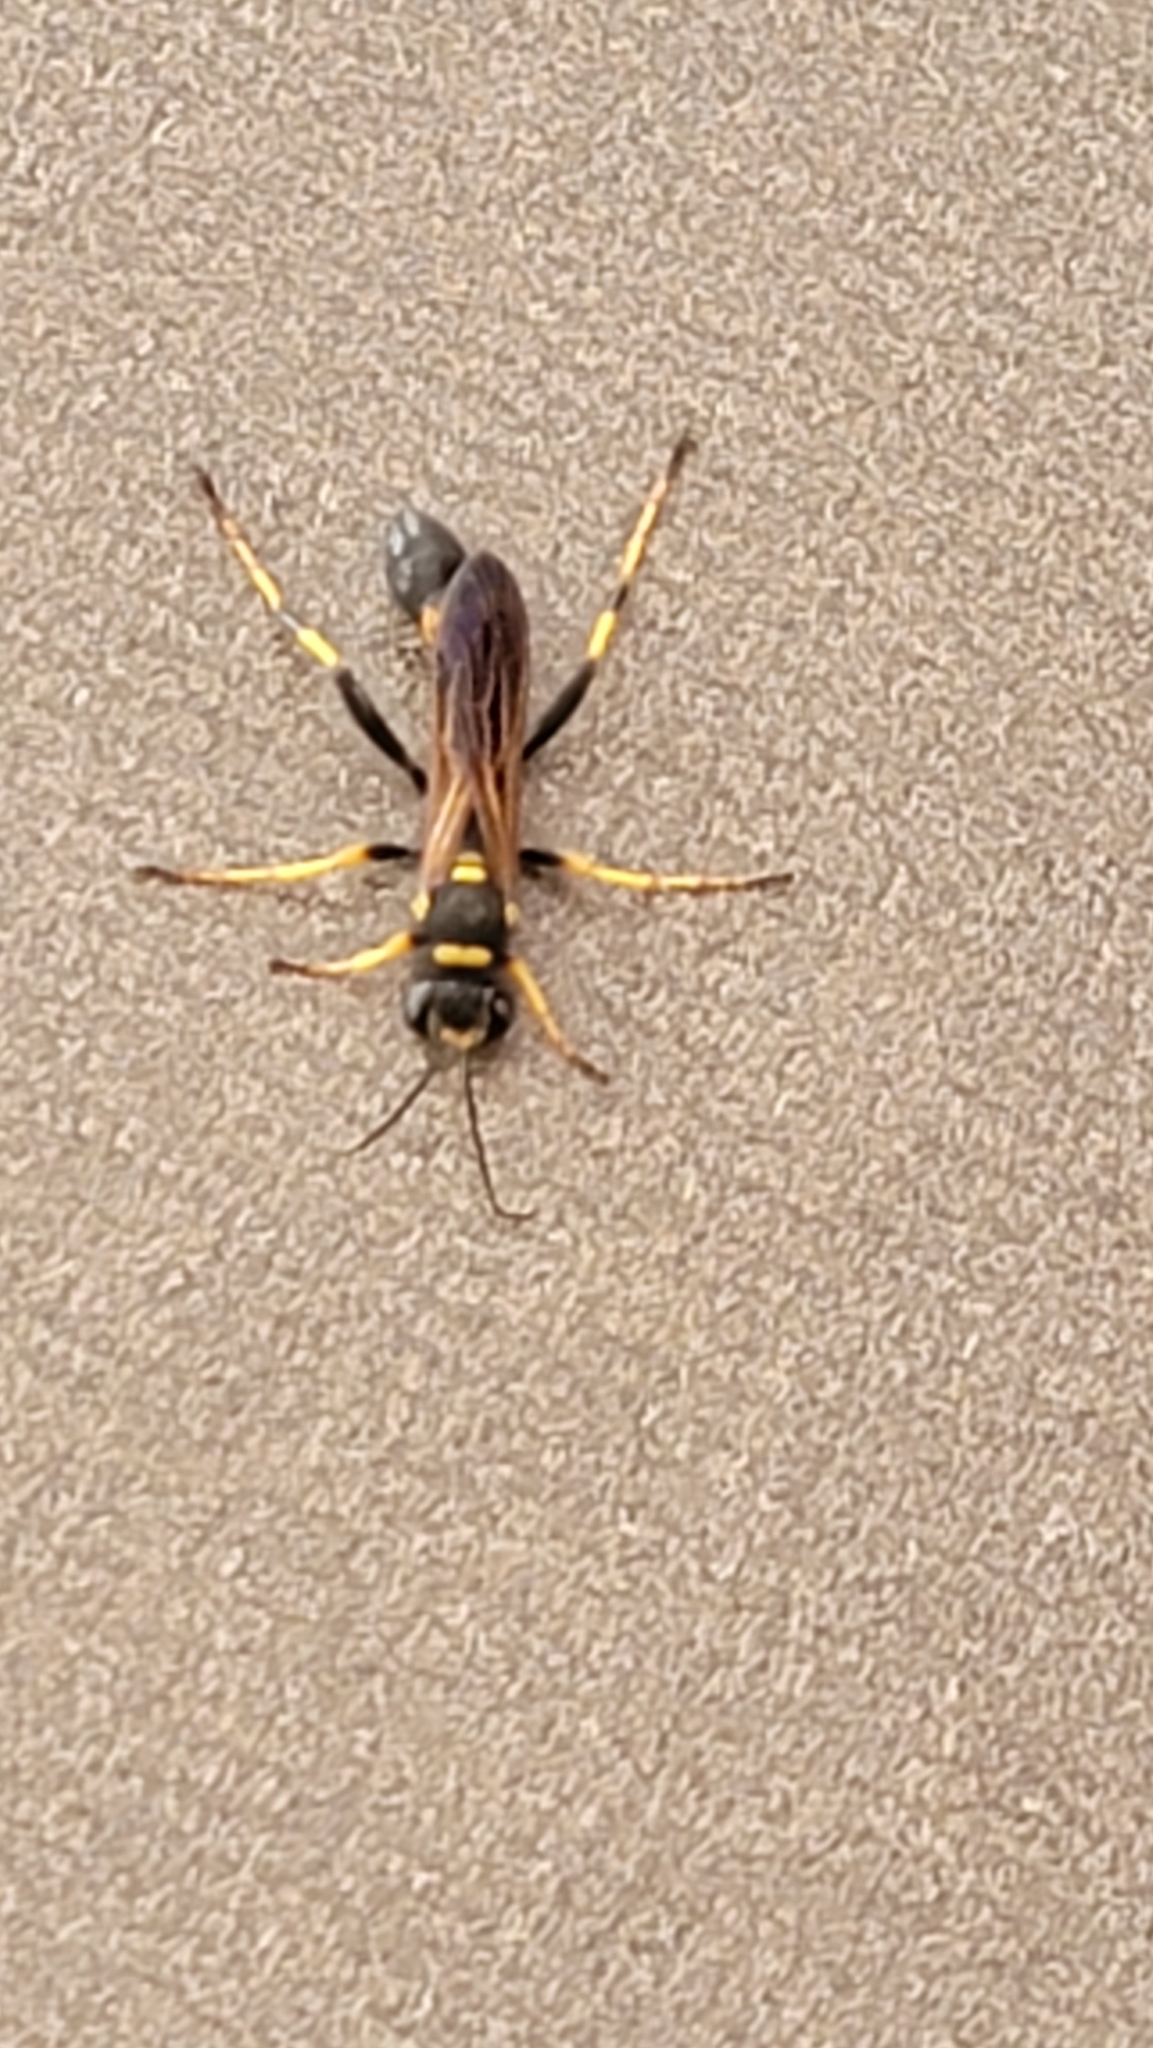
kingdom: Animalia
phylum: Arthropoda
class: Insecta
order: Hymenoptera
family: Sphecidae
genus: Sceliphron
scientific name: Sceliphron caementarium
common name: Mud dauber
